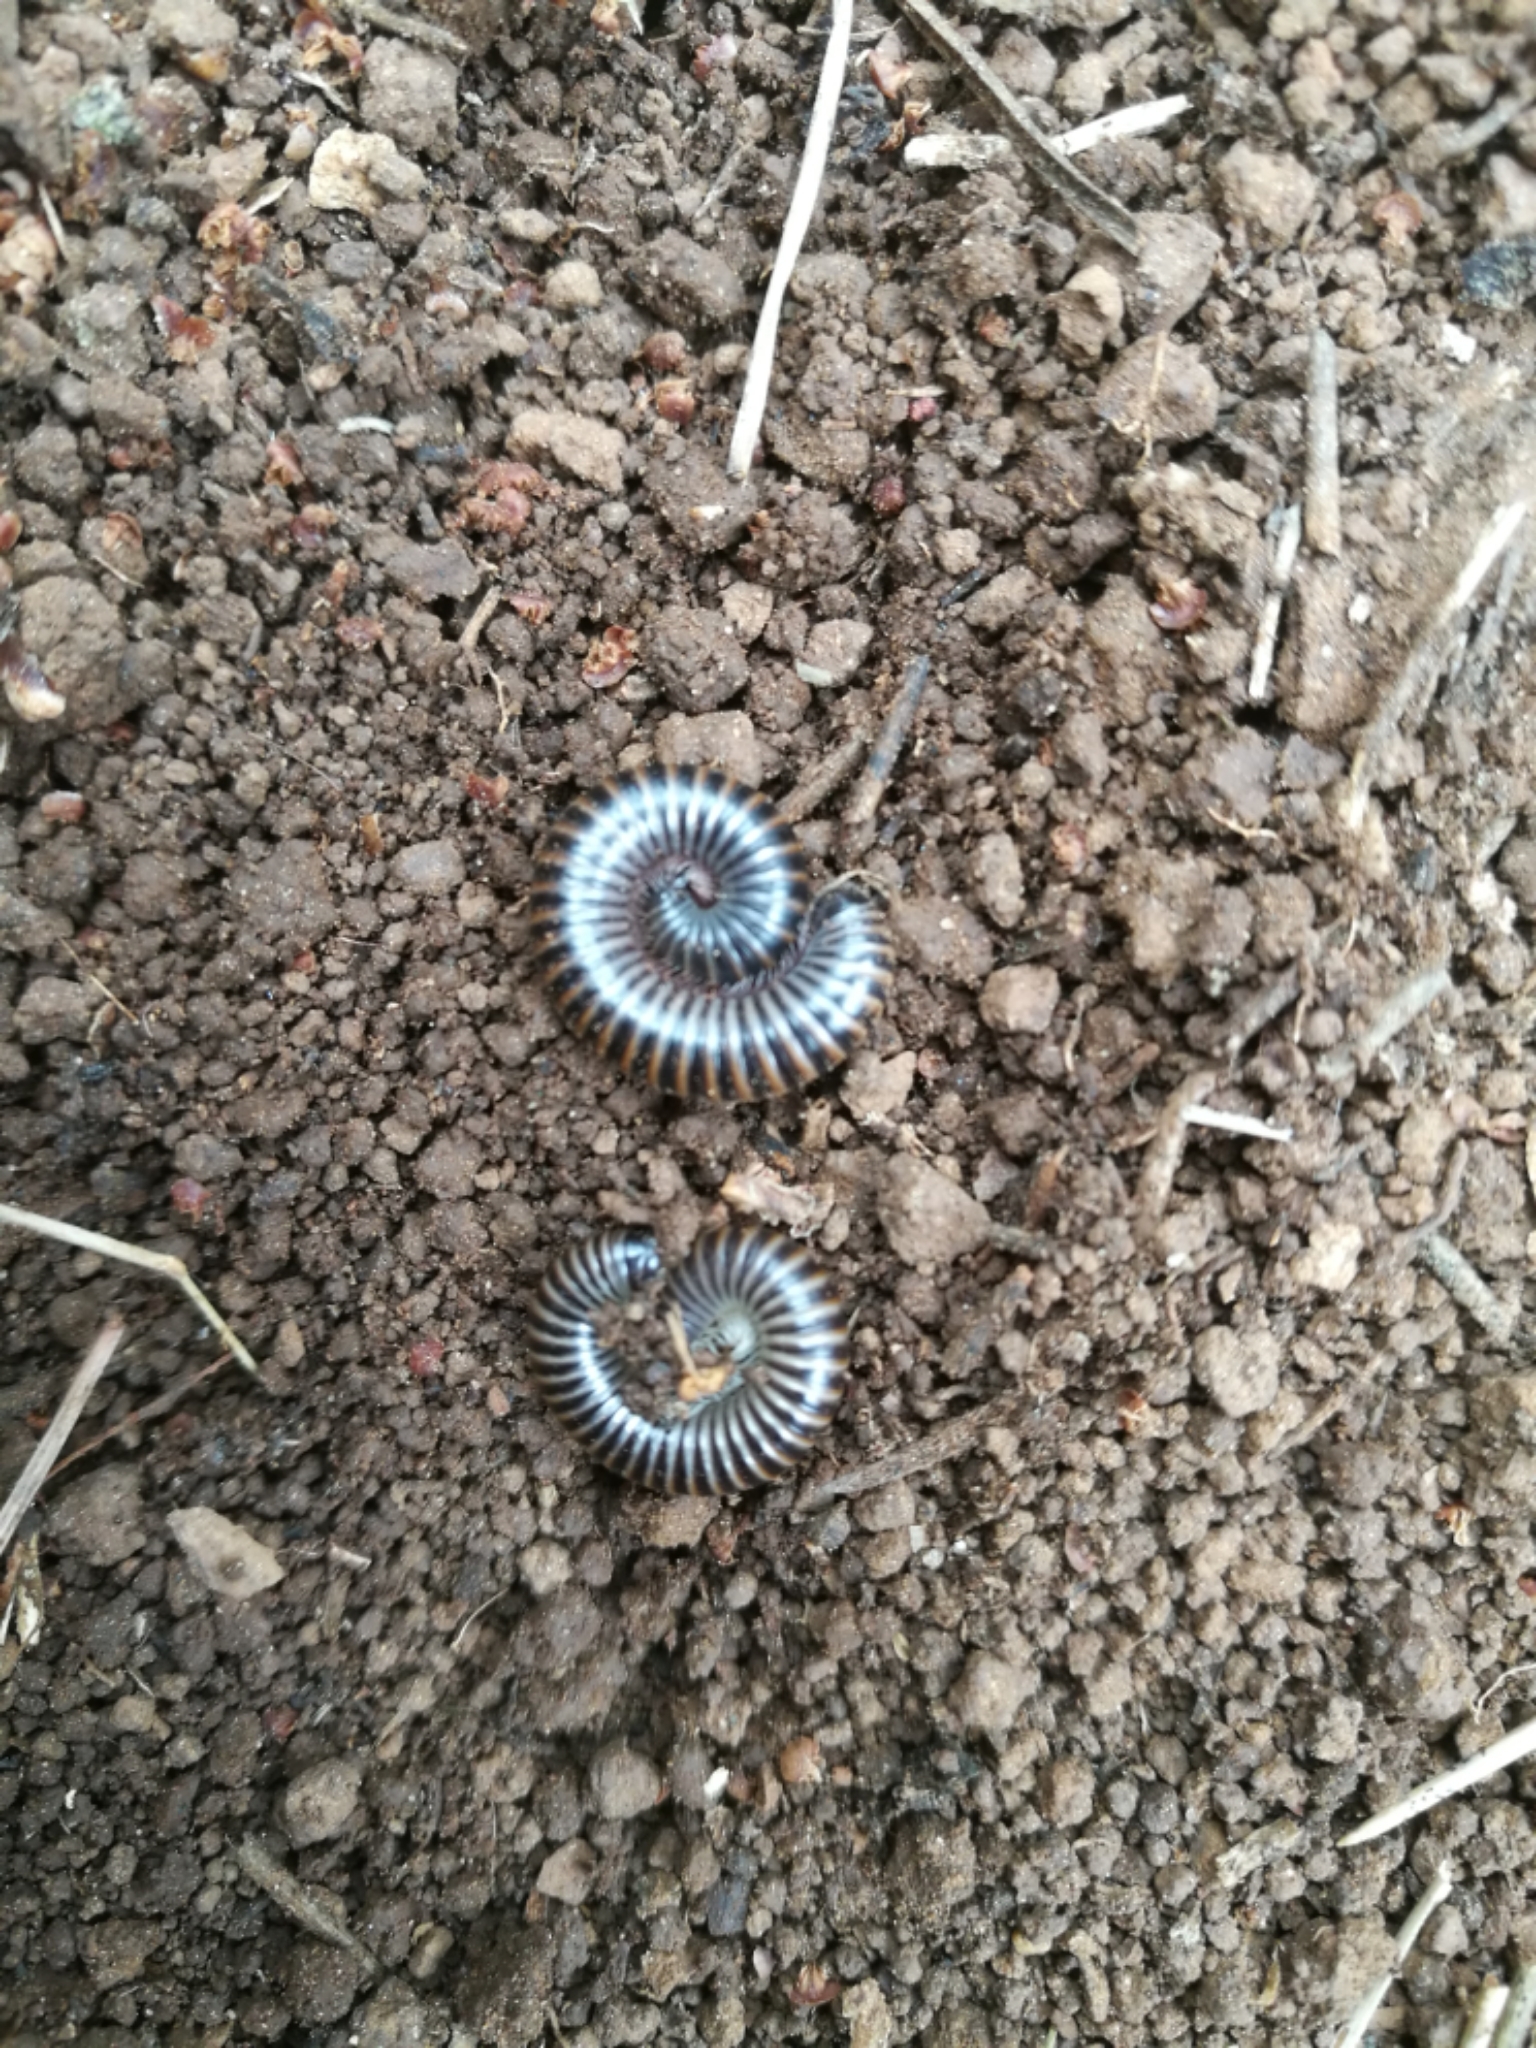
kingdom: Animalia
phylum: Arthropoda
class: Diplopoda
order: Julida
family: Julidae
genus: Acanthoiulus
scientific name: Acanthoiulus cassinensis
